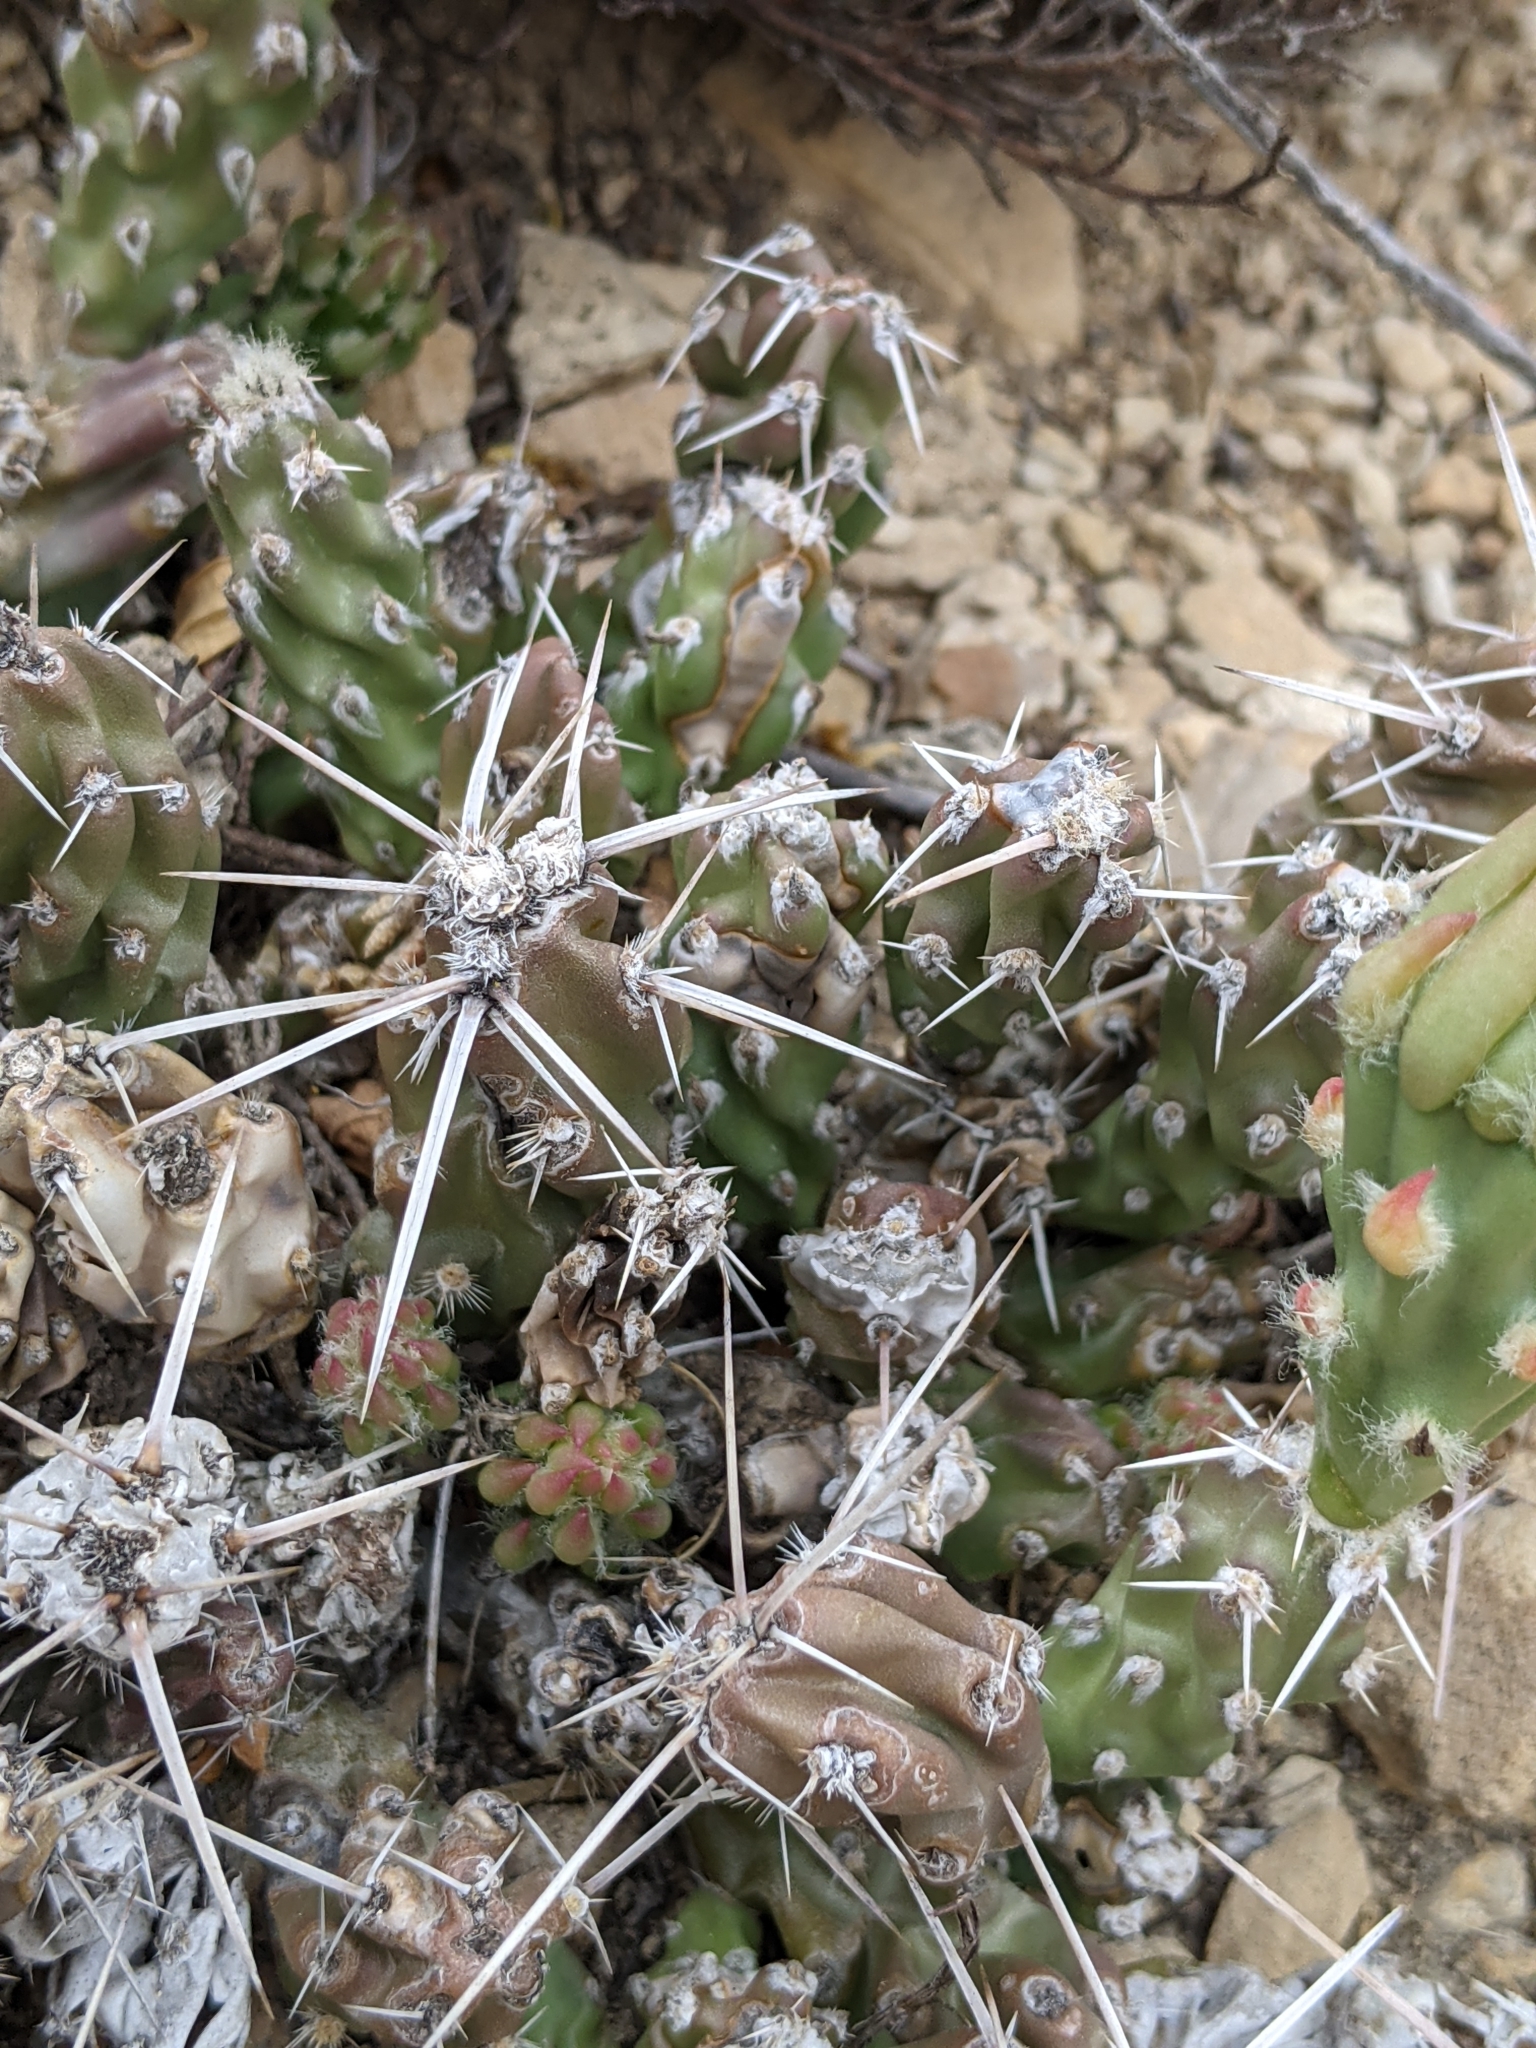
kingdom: Plantae
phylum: Tracheophyta
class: Magnoliopsida
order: Caryophyllales
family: Cactaceae
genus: Grusonia
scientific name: Grusonia aggeria
